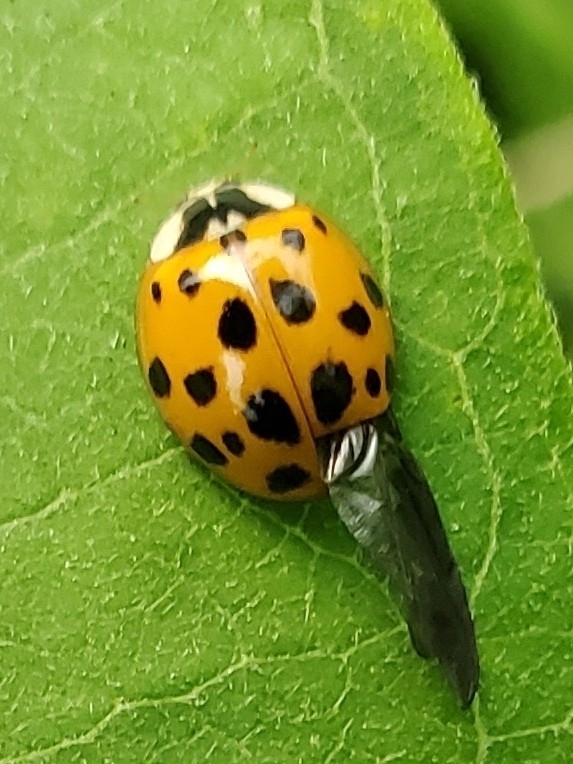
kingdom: Animalia
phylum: Arthropoda
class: Insecta
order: Coleoptera
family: Coccinellidae
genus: Harmonia
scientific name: Harmonia axyridis
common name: Harlequin ladybird
